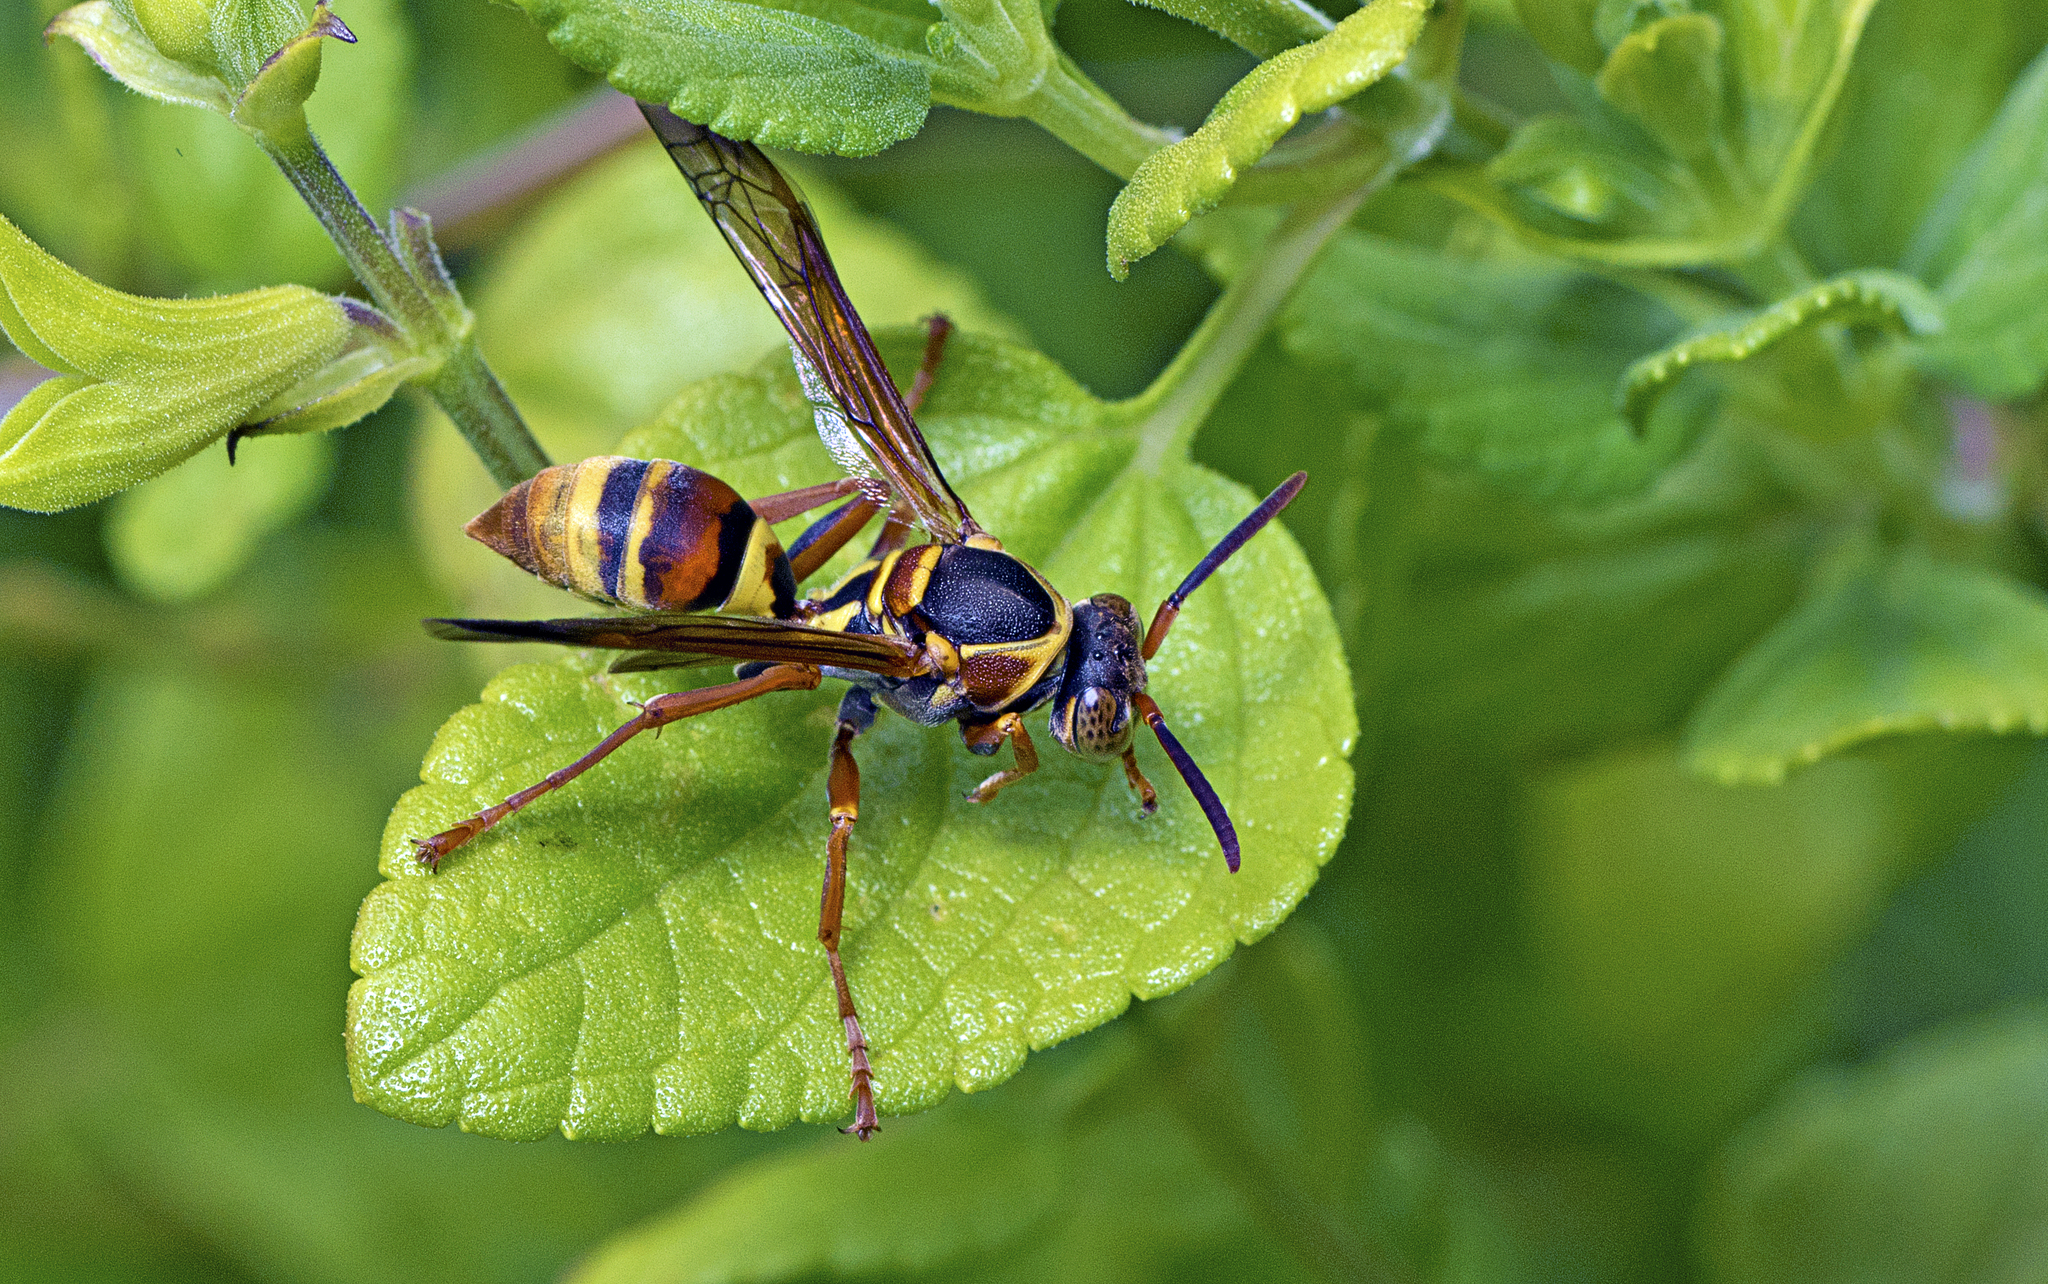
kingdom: Animalia
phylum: Arthropoda
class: Insecta
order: Hymenoptera
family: Eumenidae
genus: Polistes
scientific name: Polistes humilis
